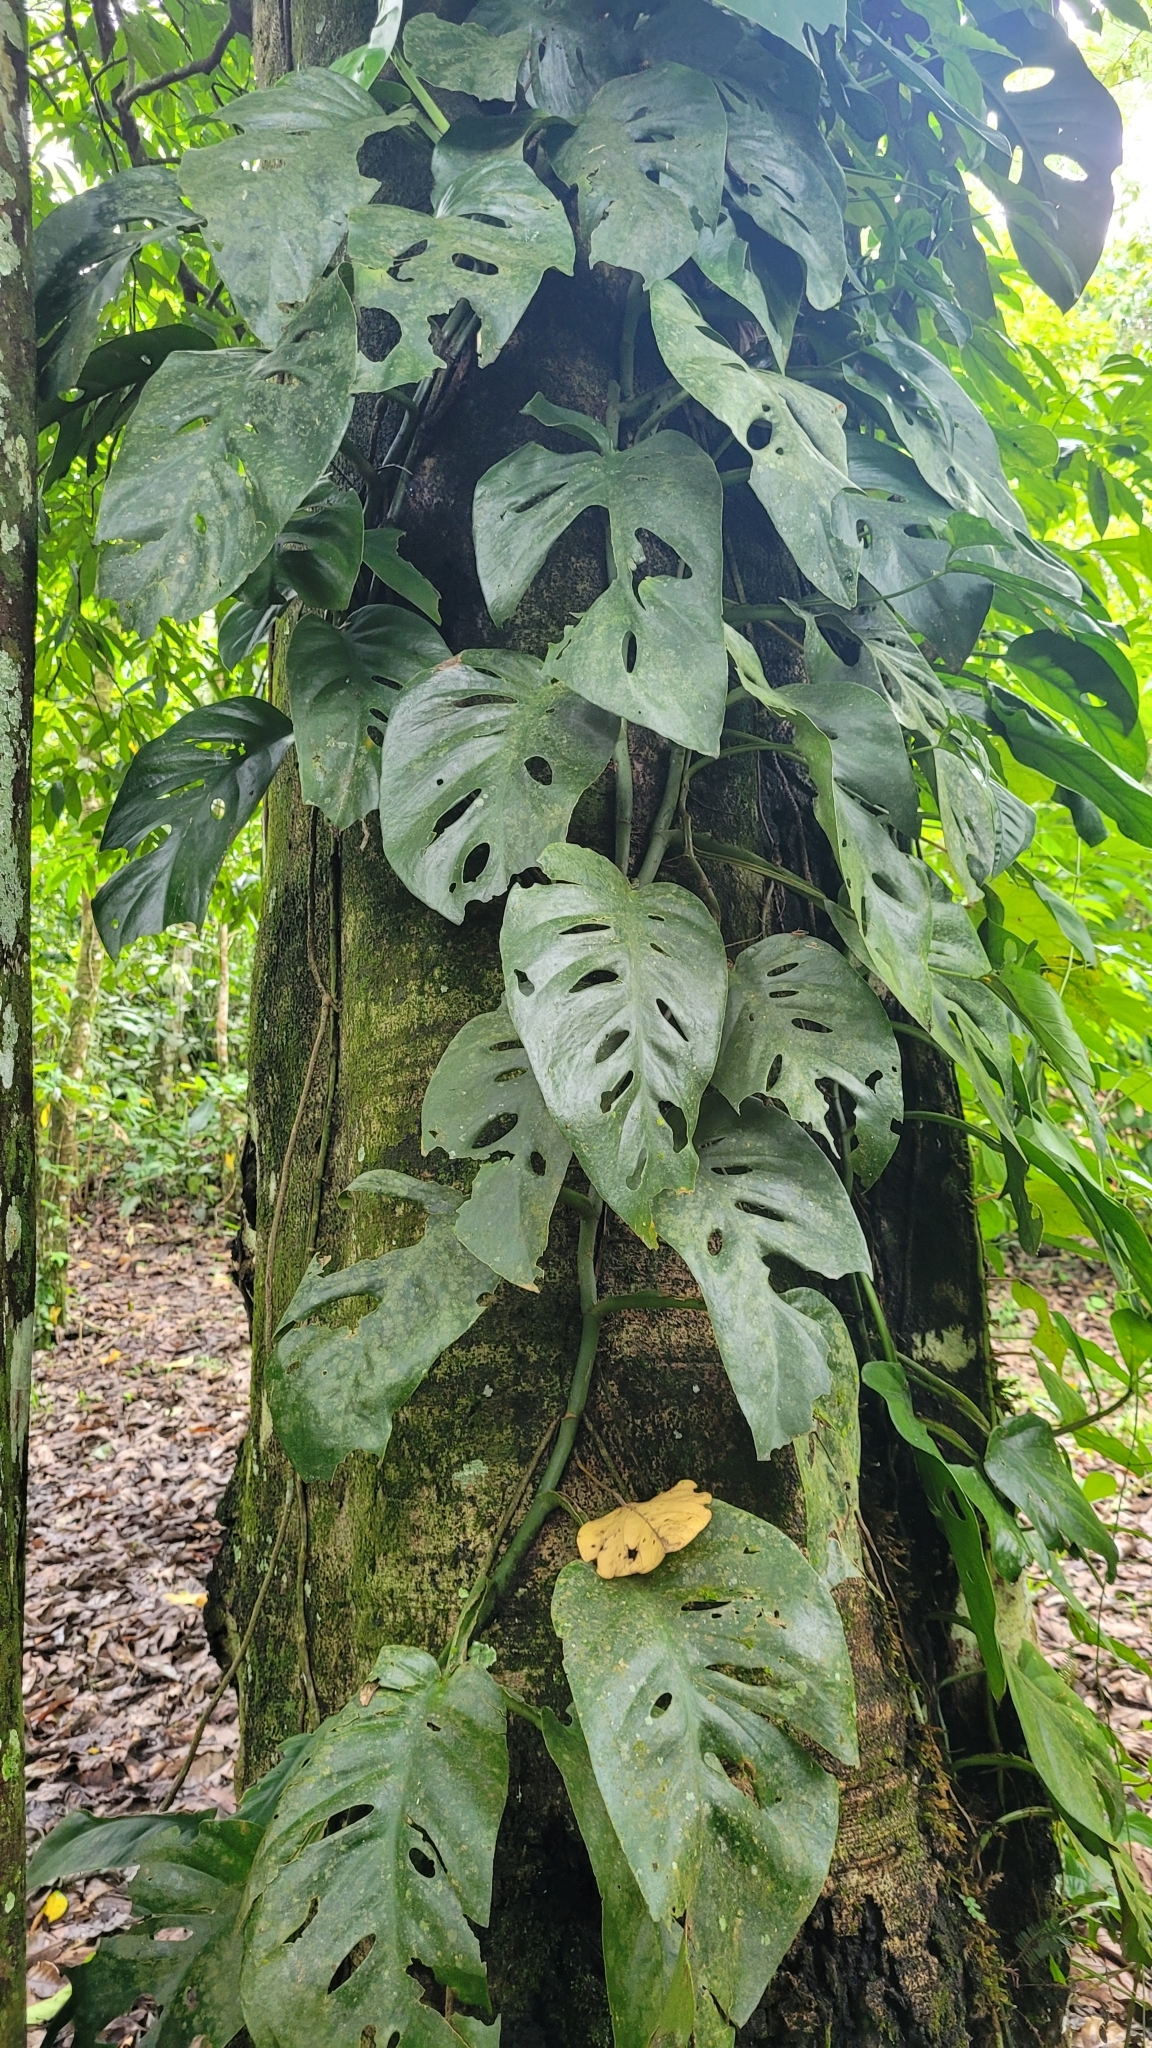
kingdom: Plantae
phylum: Tracheophyta
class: Liliopsida
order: Alismatales
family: Araceae
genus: Monstera
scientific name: Monstera acuminata
